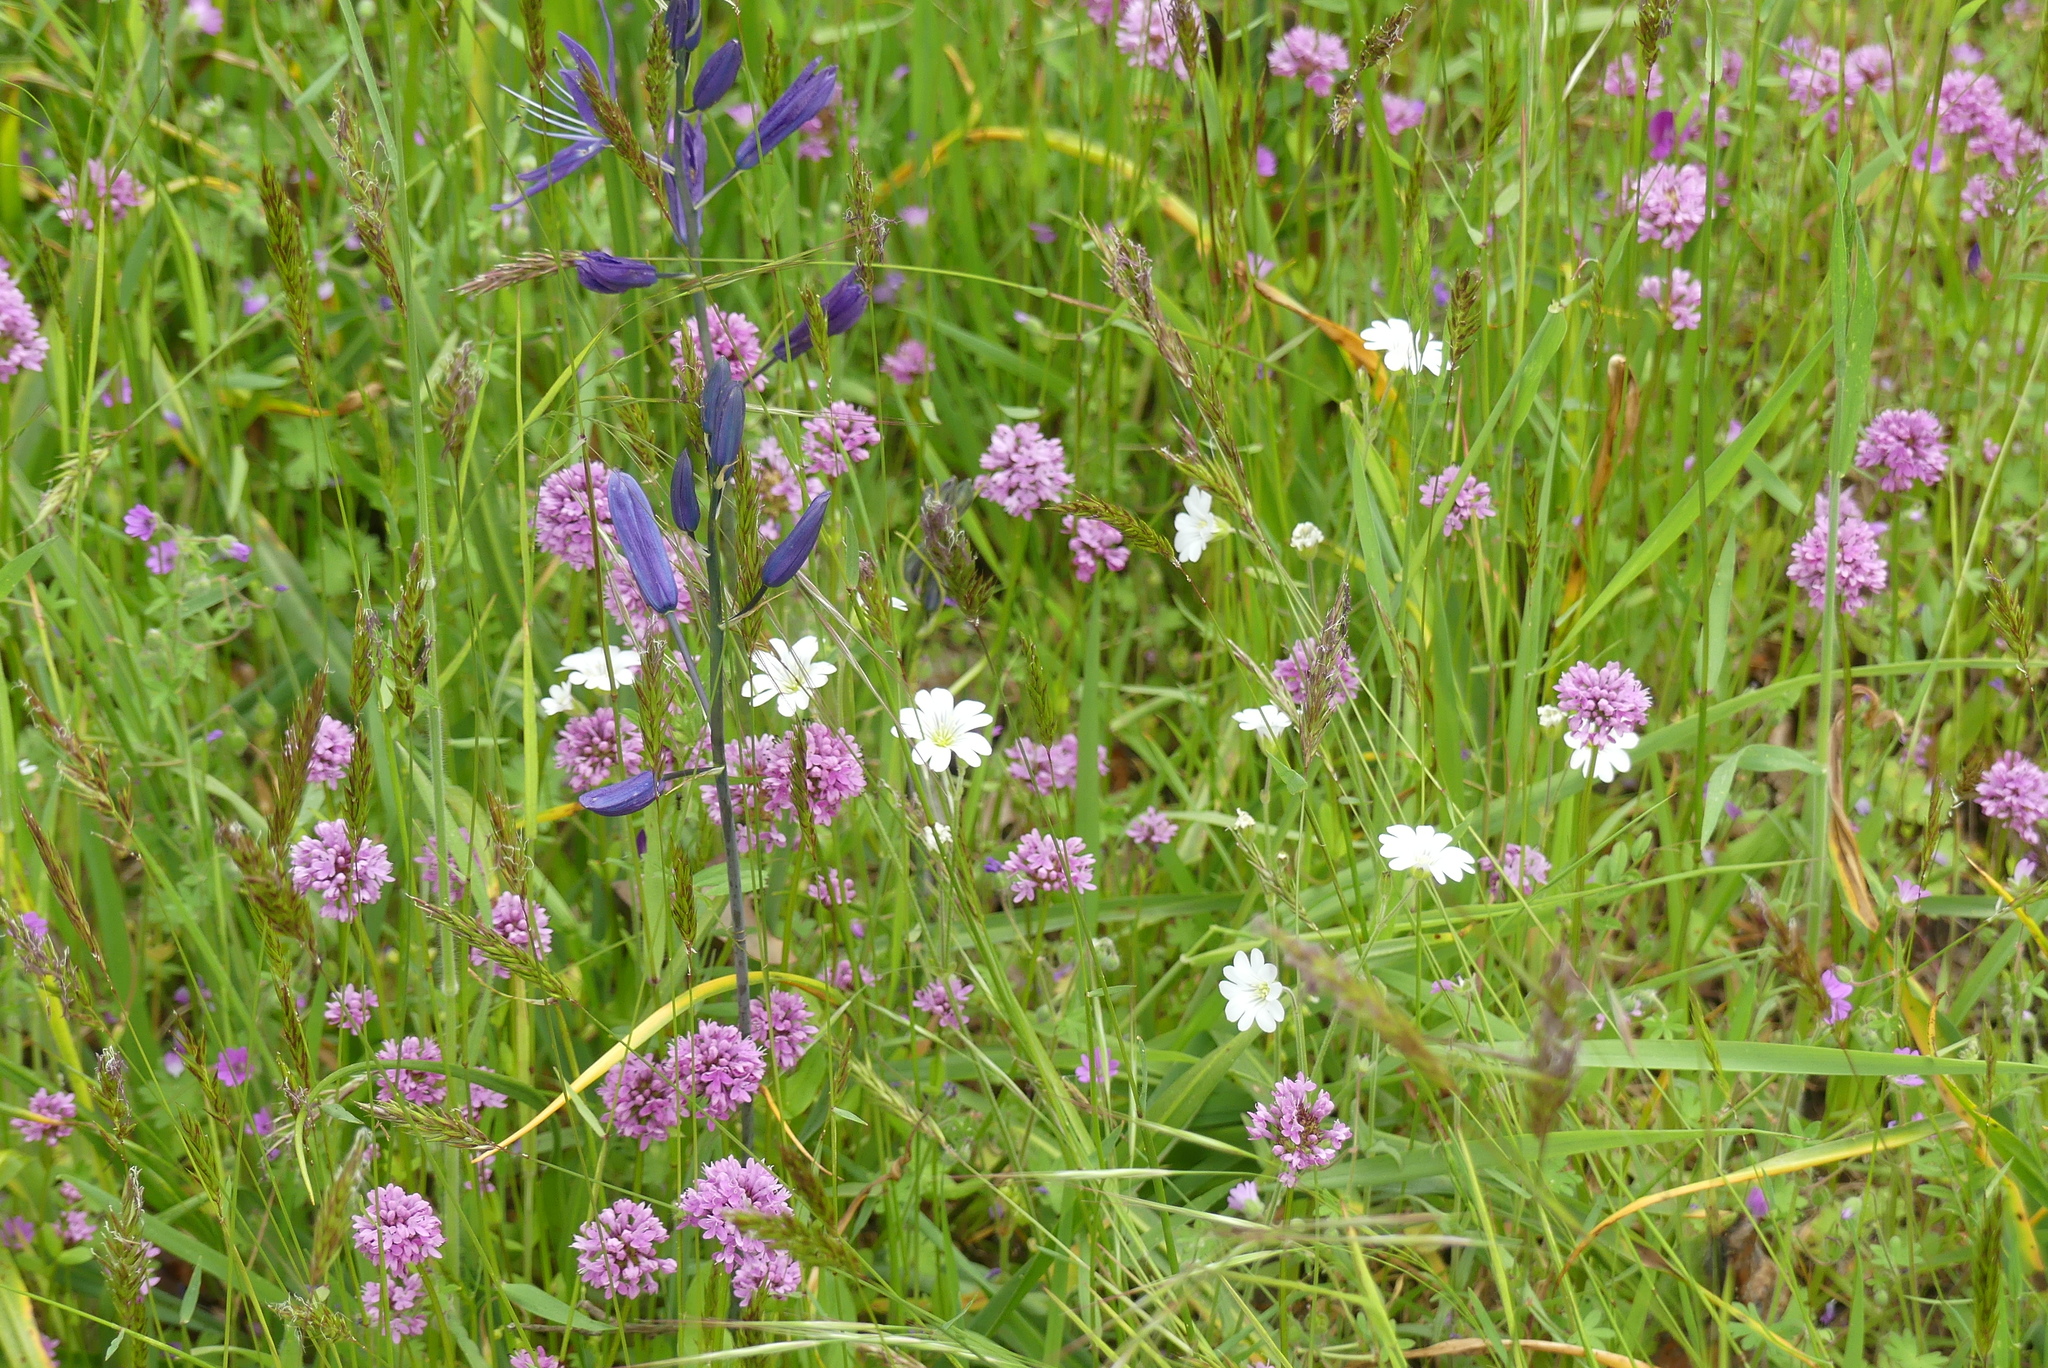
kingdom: Plantae
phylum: Tracheophyta
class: Magnoliopsida
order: Caryophyllales
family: Caryophyllaceae
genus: Cerastium
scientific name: Cerastium arvense
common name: Field mouse-ear
